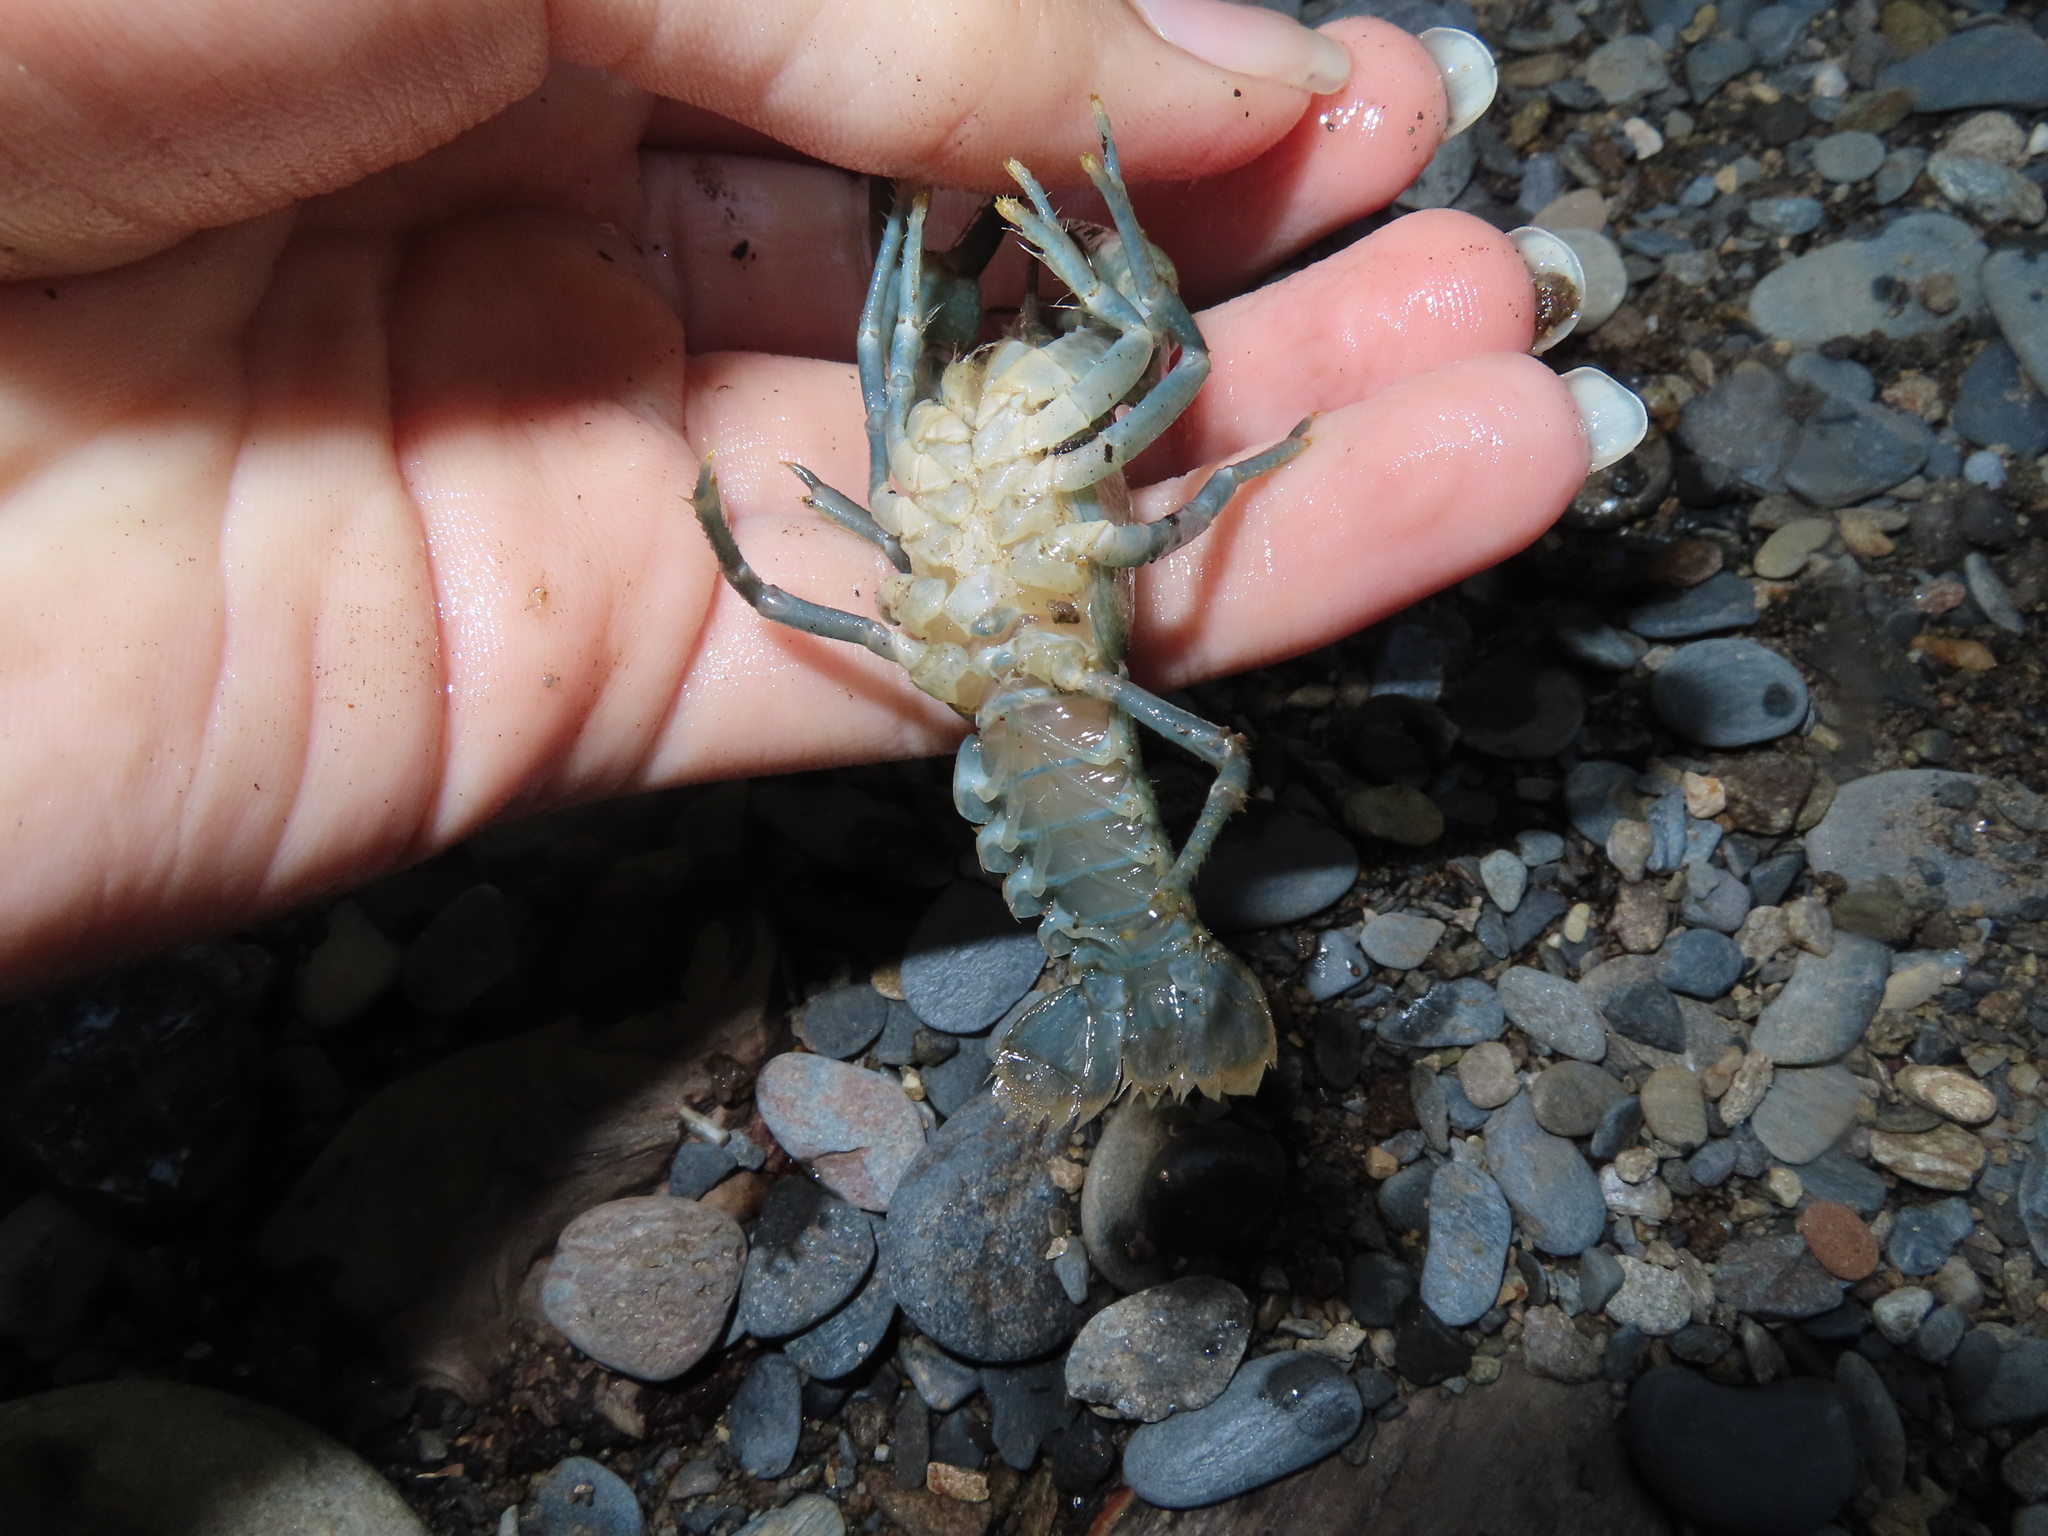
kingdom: Animalia
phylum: Arthropoda
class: Malacostraca
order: Decapoda
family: Cambaridae
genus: Cambarus
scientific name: Cambarus bartonii
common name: Appalachian brook crayfish
